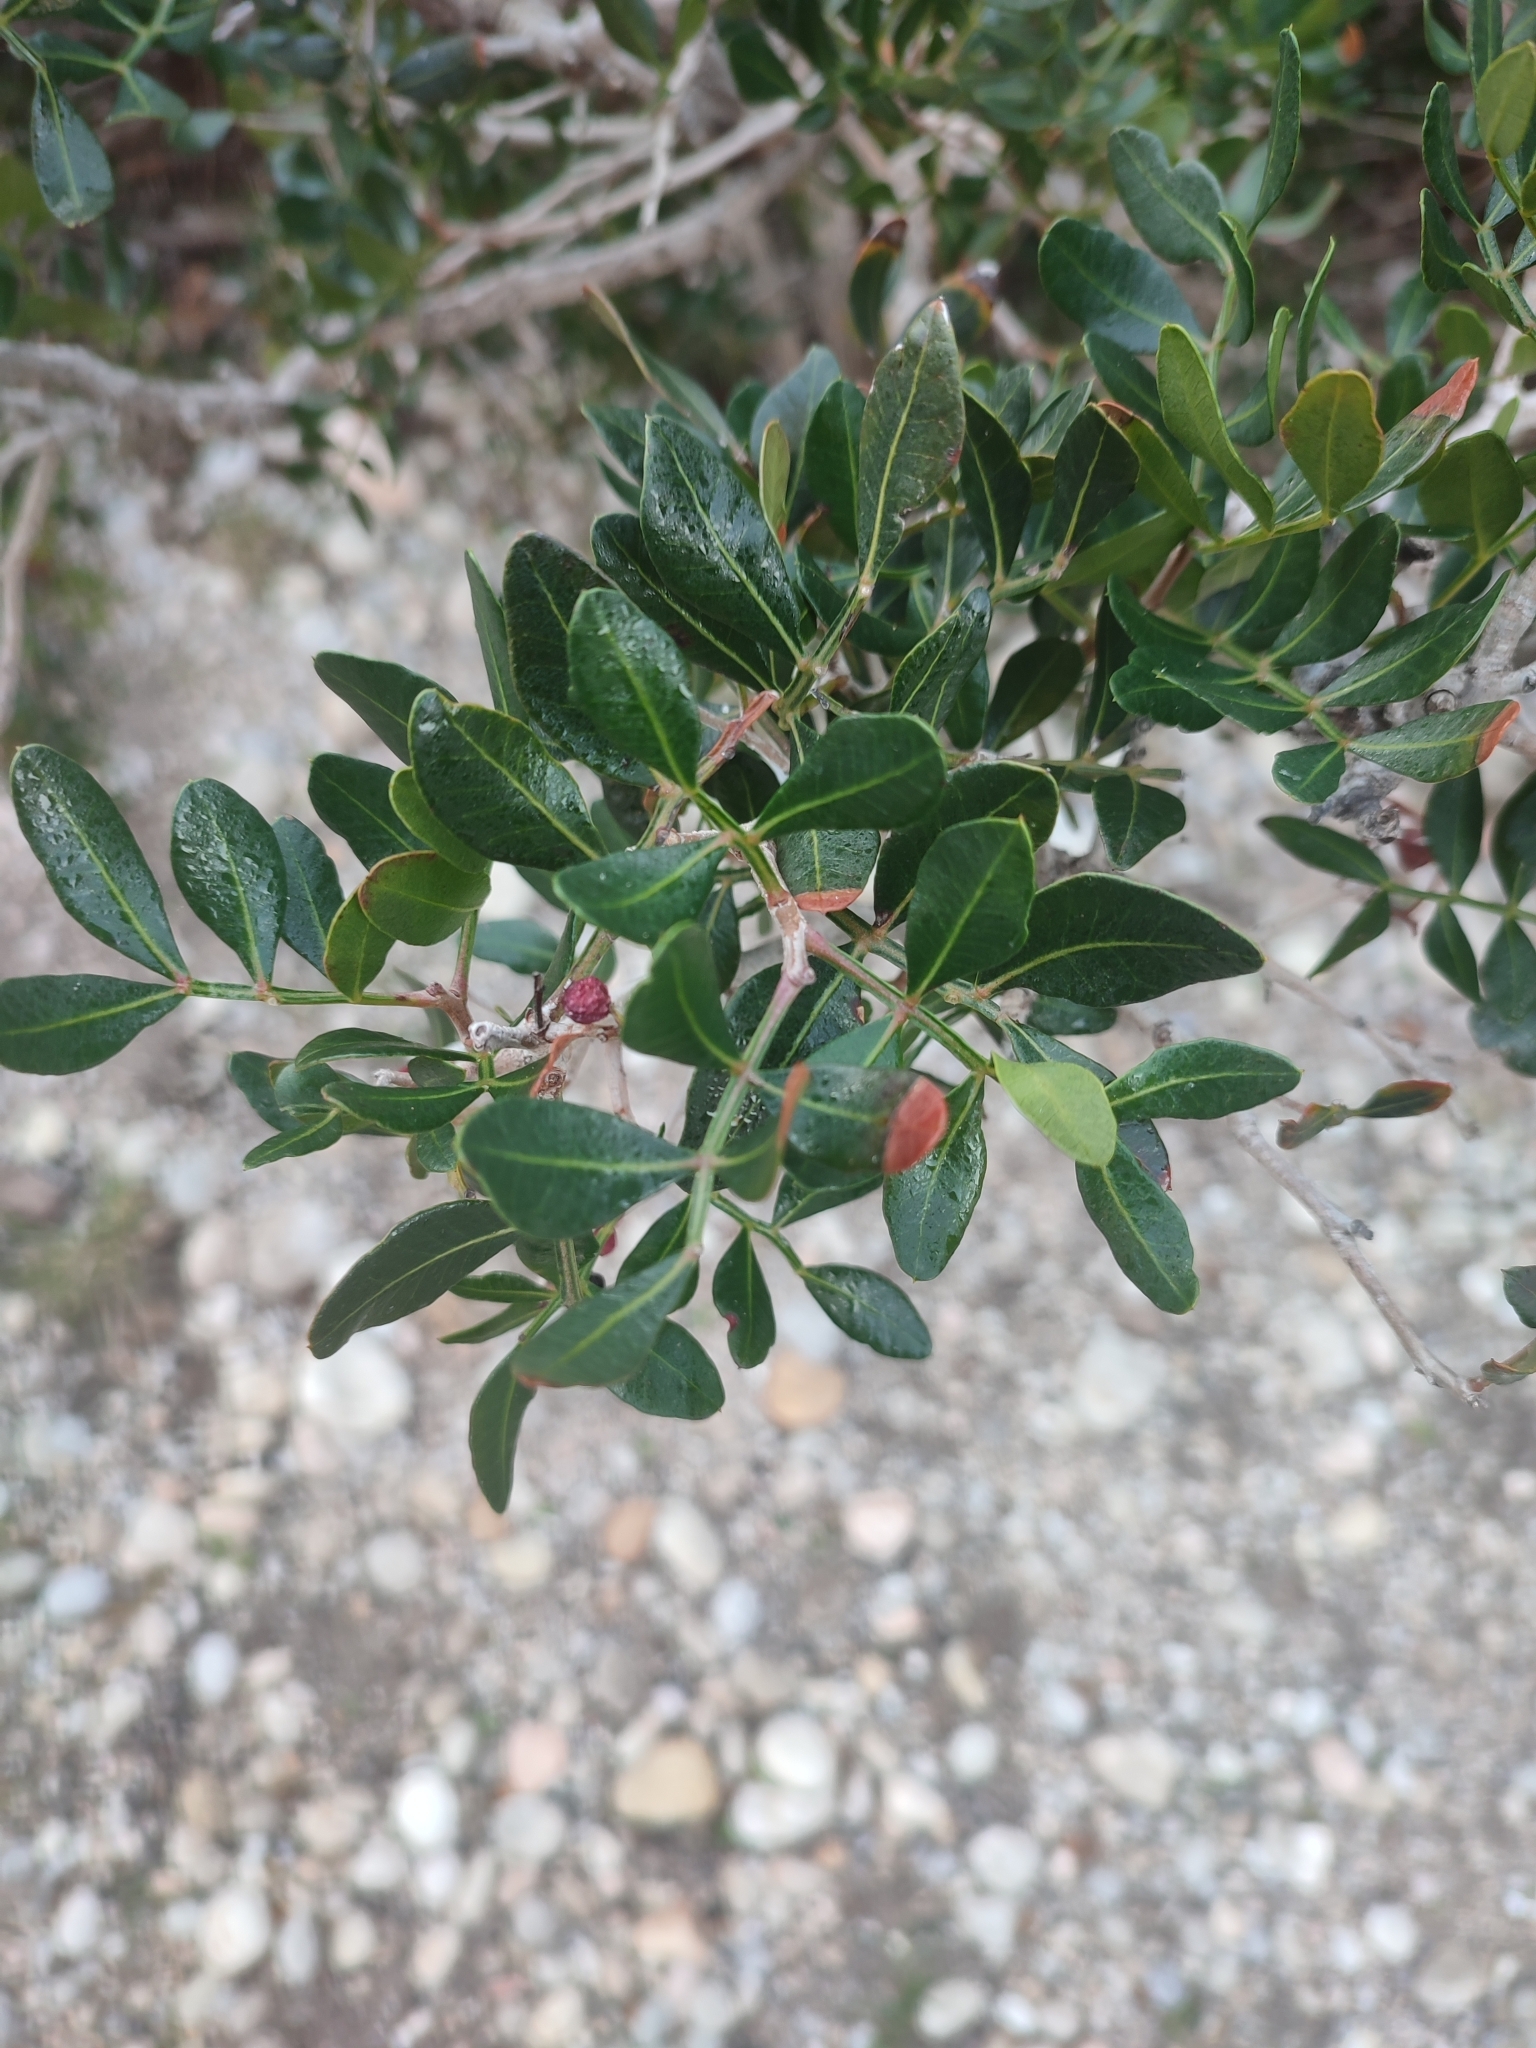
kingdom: Plantae
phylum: Tracheophyta
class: Magnoliopsida
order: Sapindales
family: Anacardiaceae
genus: Pistacia
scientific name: Pistacia lentiscus
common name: Lentisk
